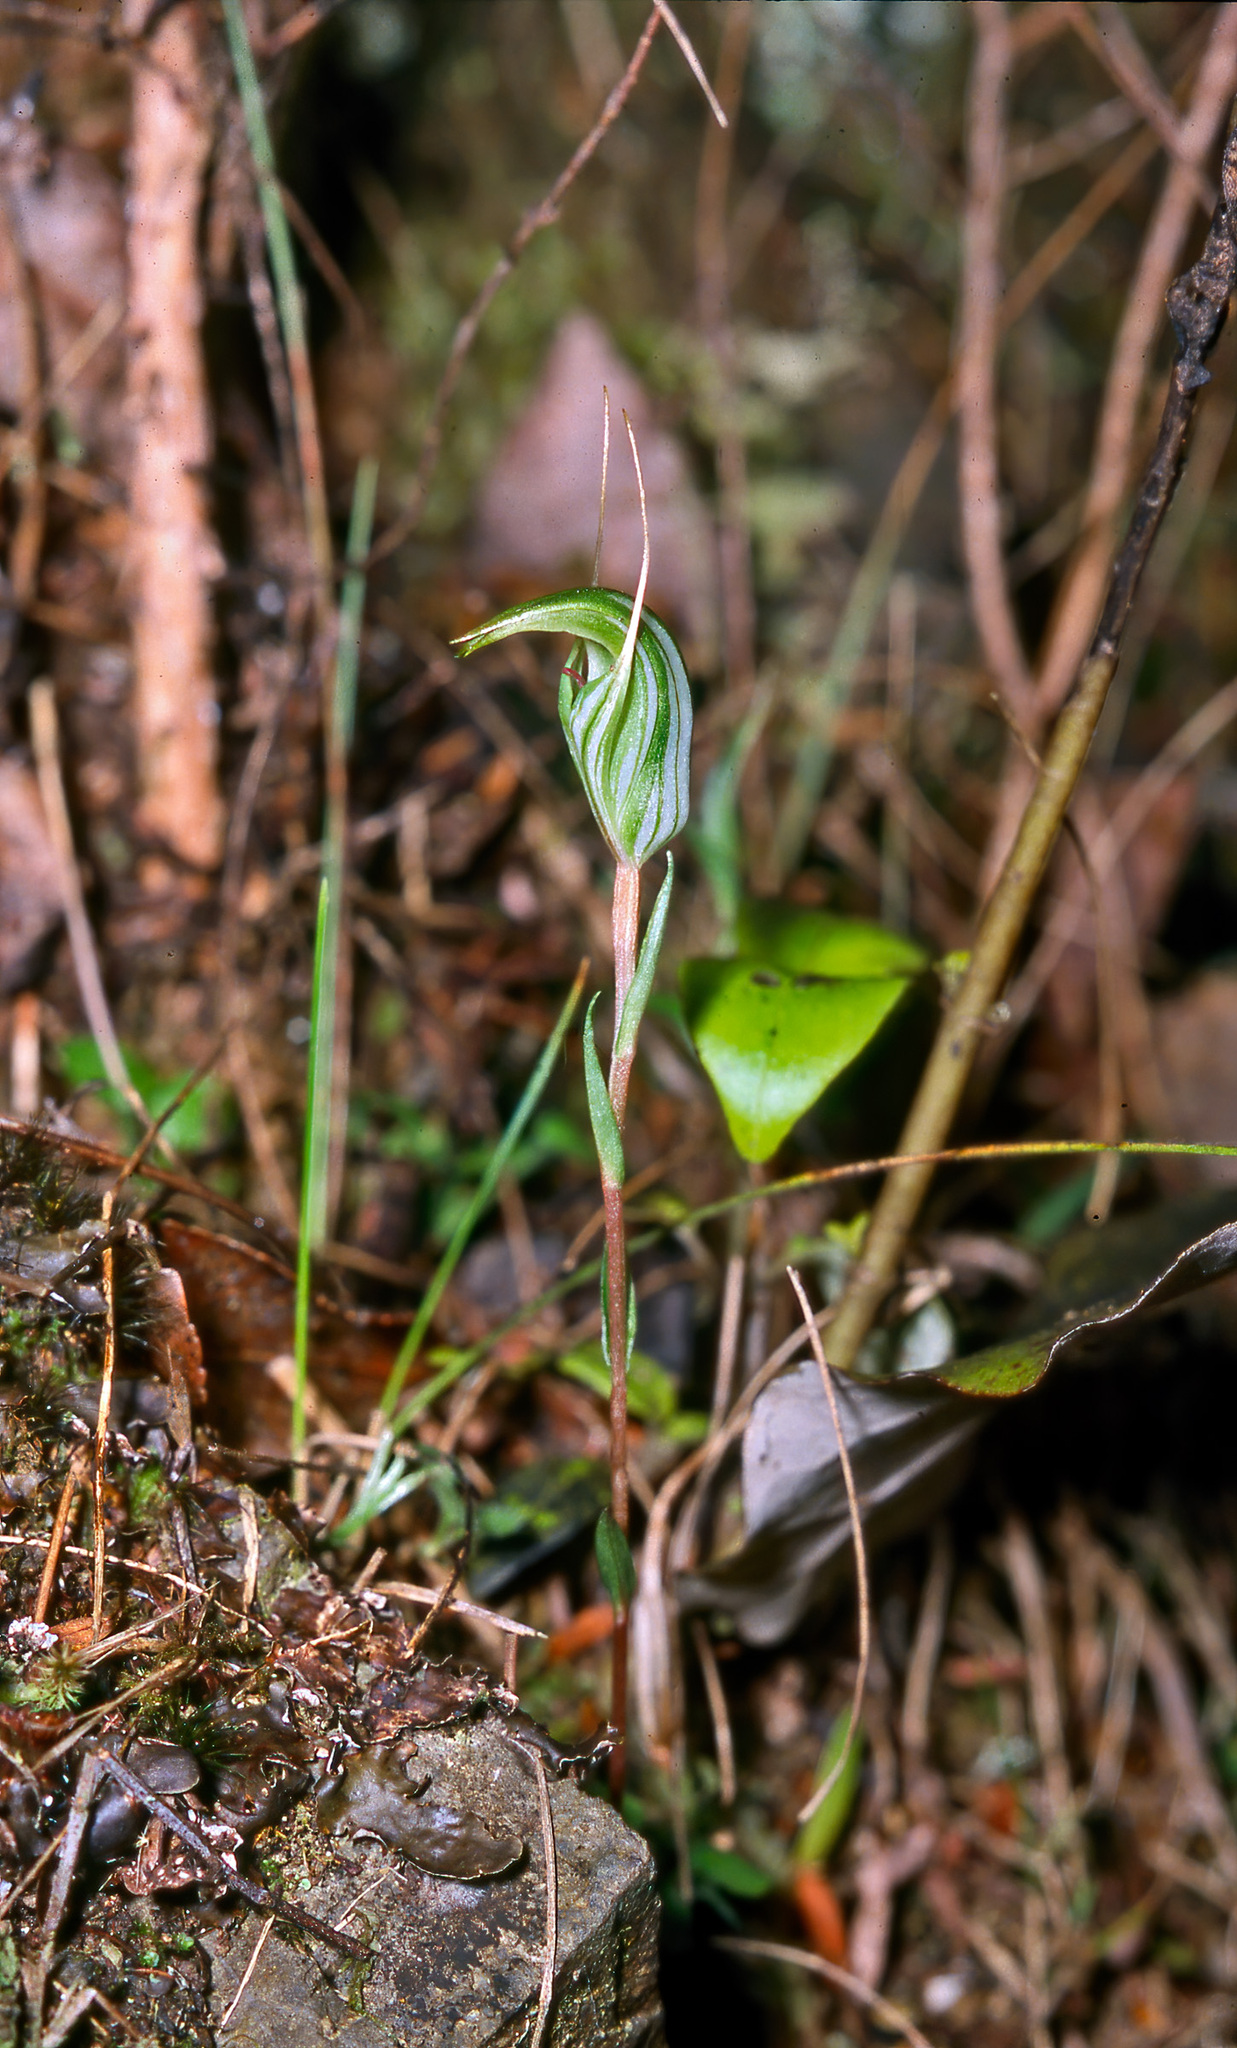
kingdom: Plantae
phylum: Tracheophyta
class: Liliopsida
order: Asparagales
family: Orchidaceae
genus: Pterostylis
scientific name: Pterostylis alobula
